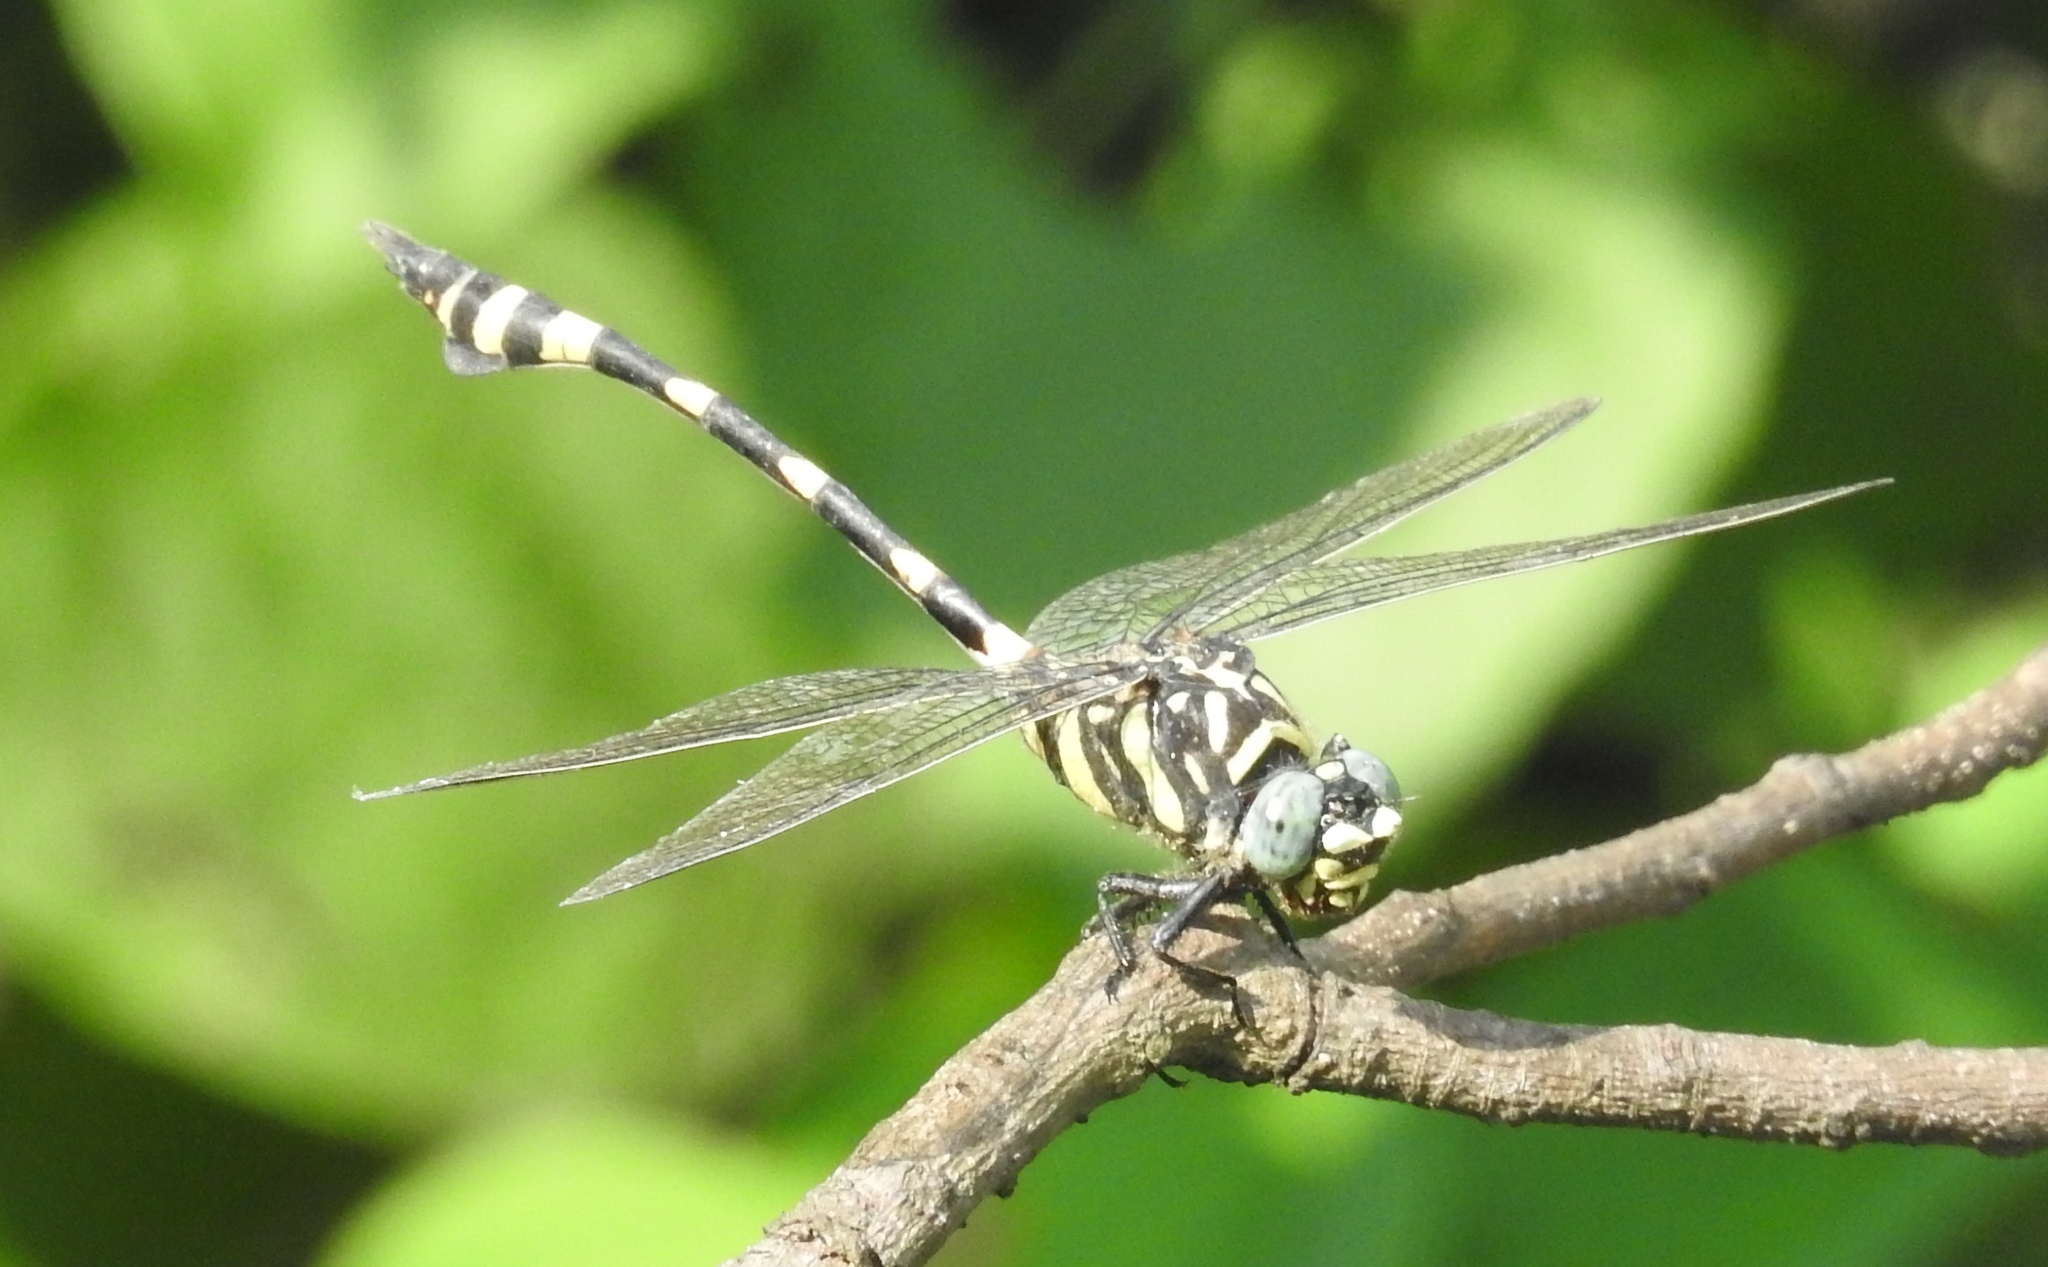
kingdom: Animalia
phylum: Arthropoda
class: Insecta
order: Odonata
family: Gomphidae
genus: Ictinogomphus
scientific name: Ictinogomphus rapax
